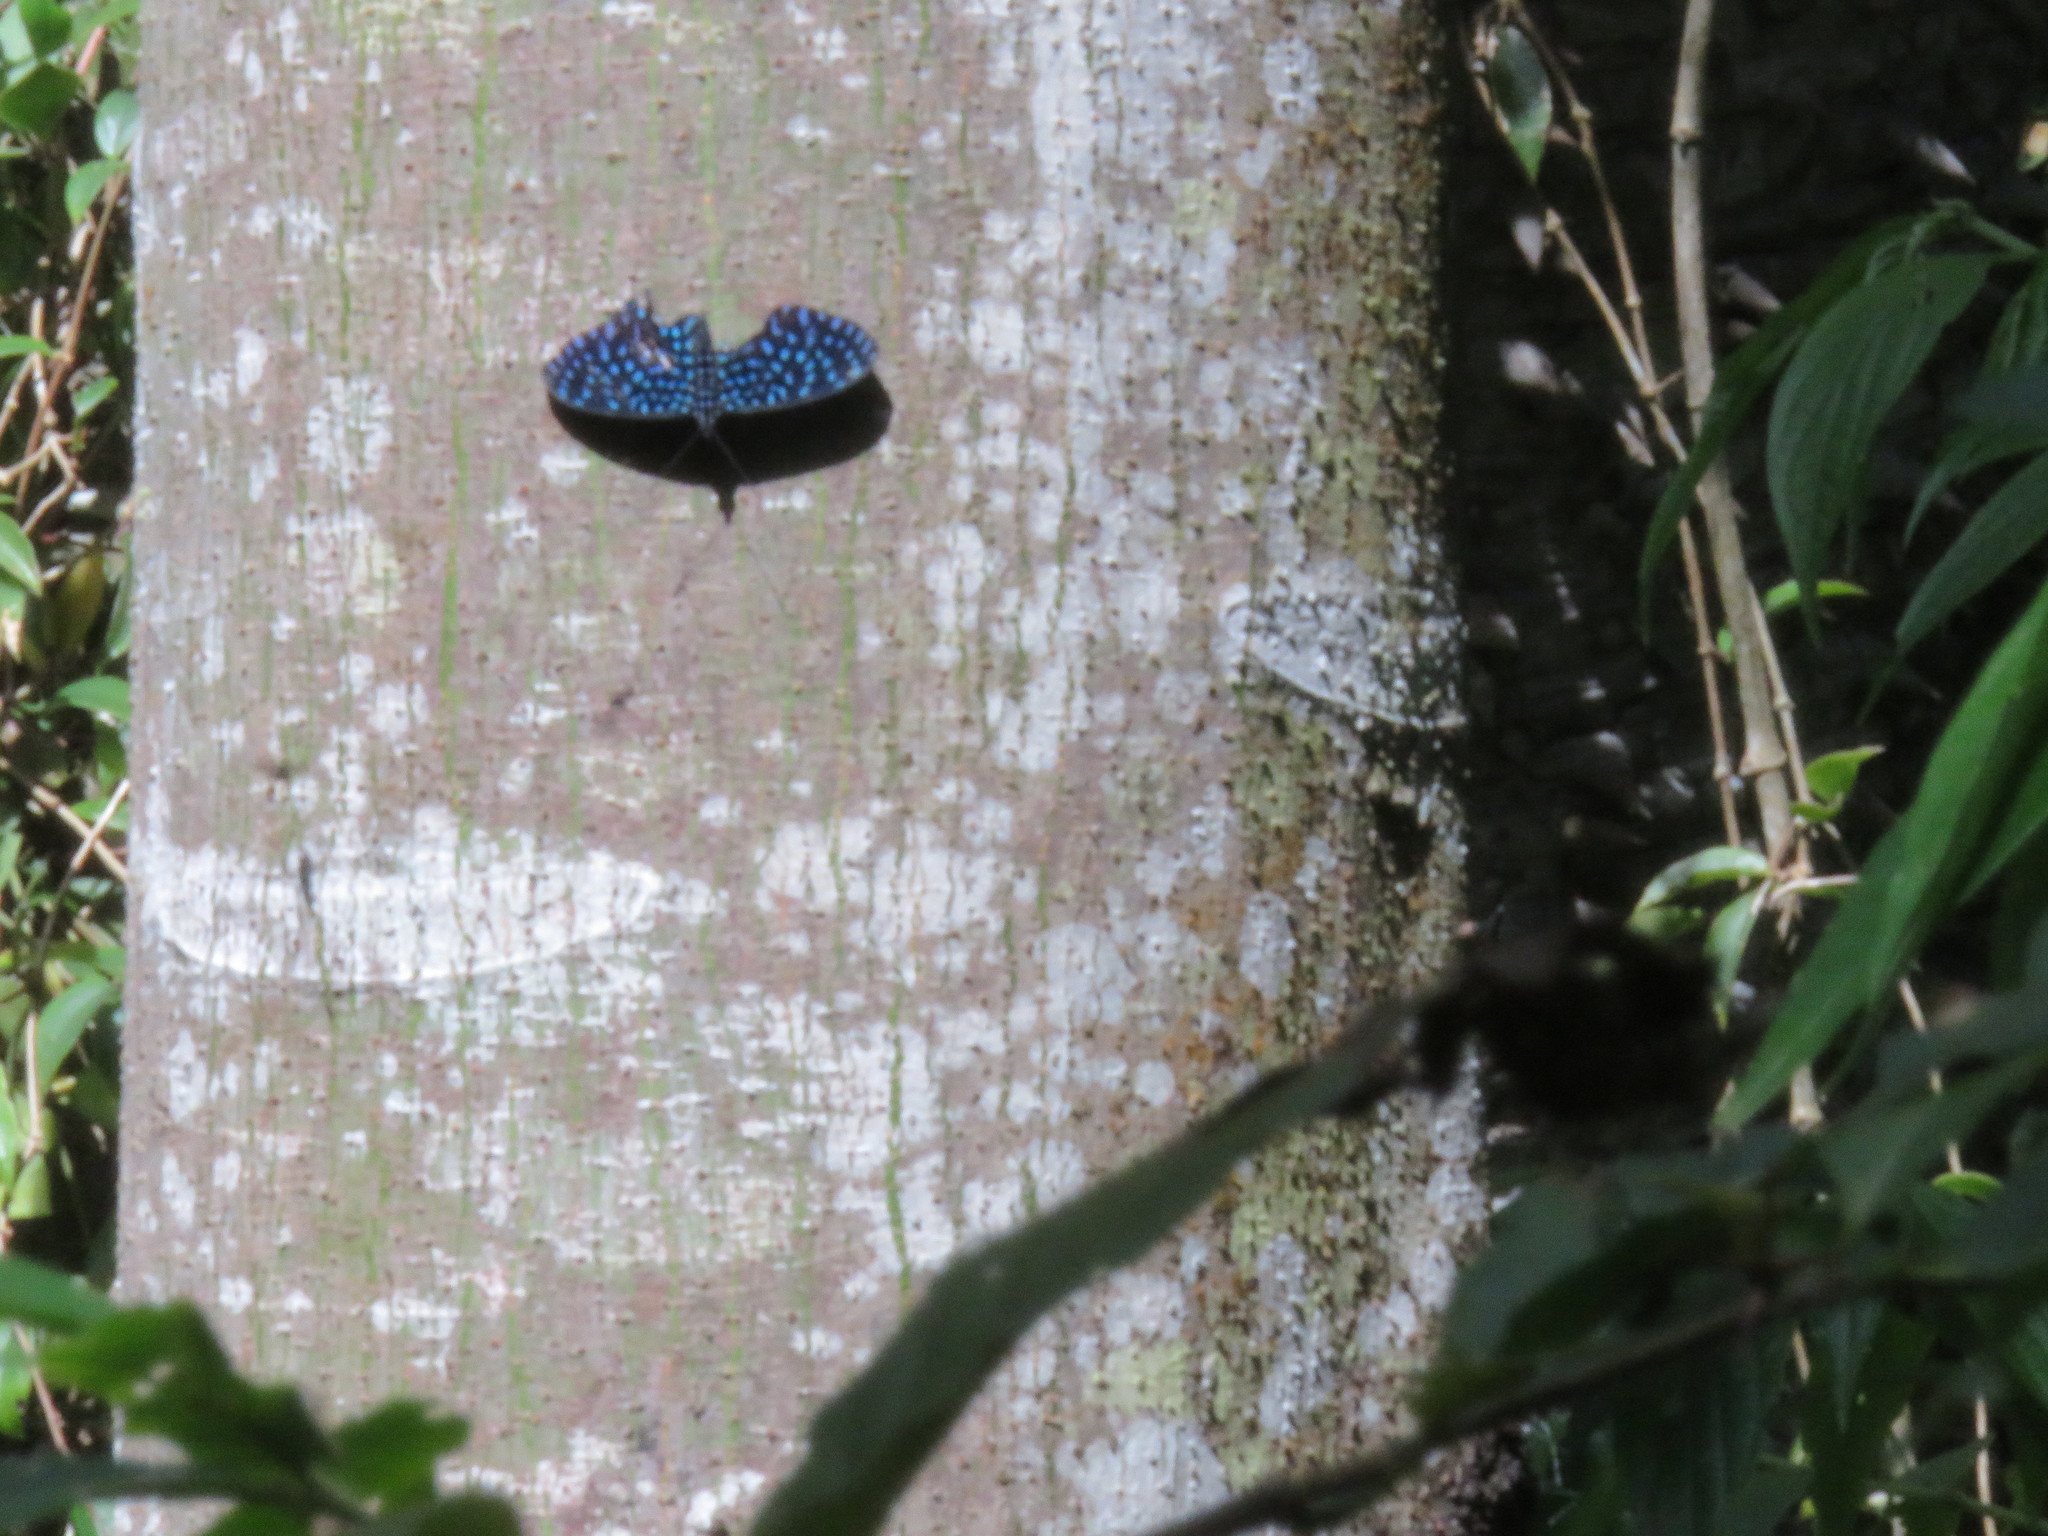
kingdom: Animalia
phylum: Arthropoda
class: Insecta
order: Lepidoptera
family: Nymphalidae
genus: Hamadryas
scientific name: Hamadryas arete
